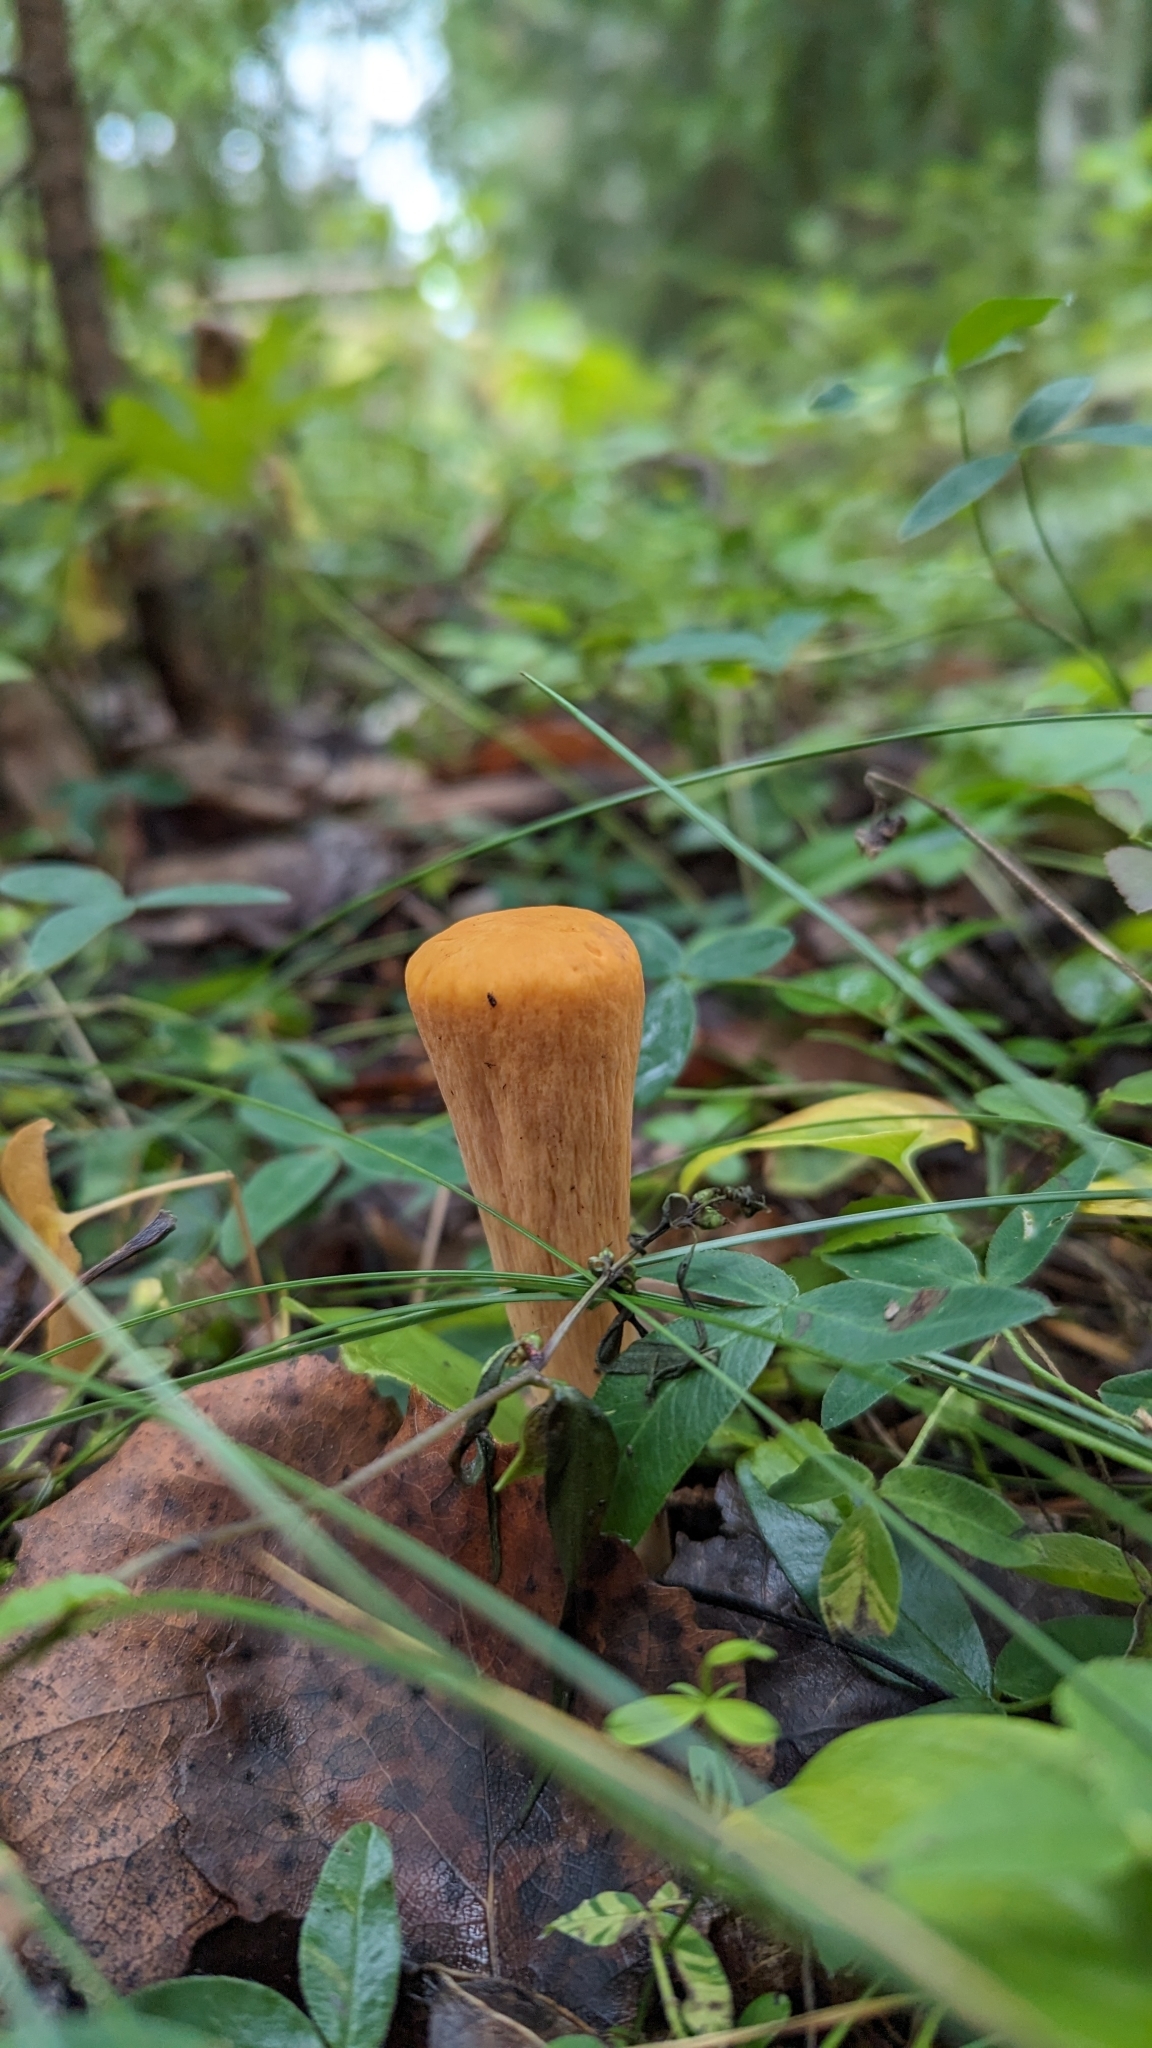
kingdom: Fungi
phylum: Basidiomycota
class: Agaricomycetes
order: Gomphales
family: Clavariadelphaceae
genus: Clavariadelphus
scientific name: Clavariadelphus truncatus
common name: Truncated club
